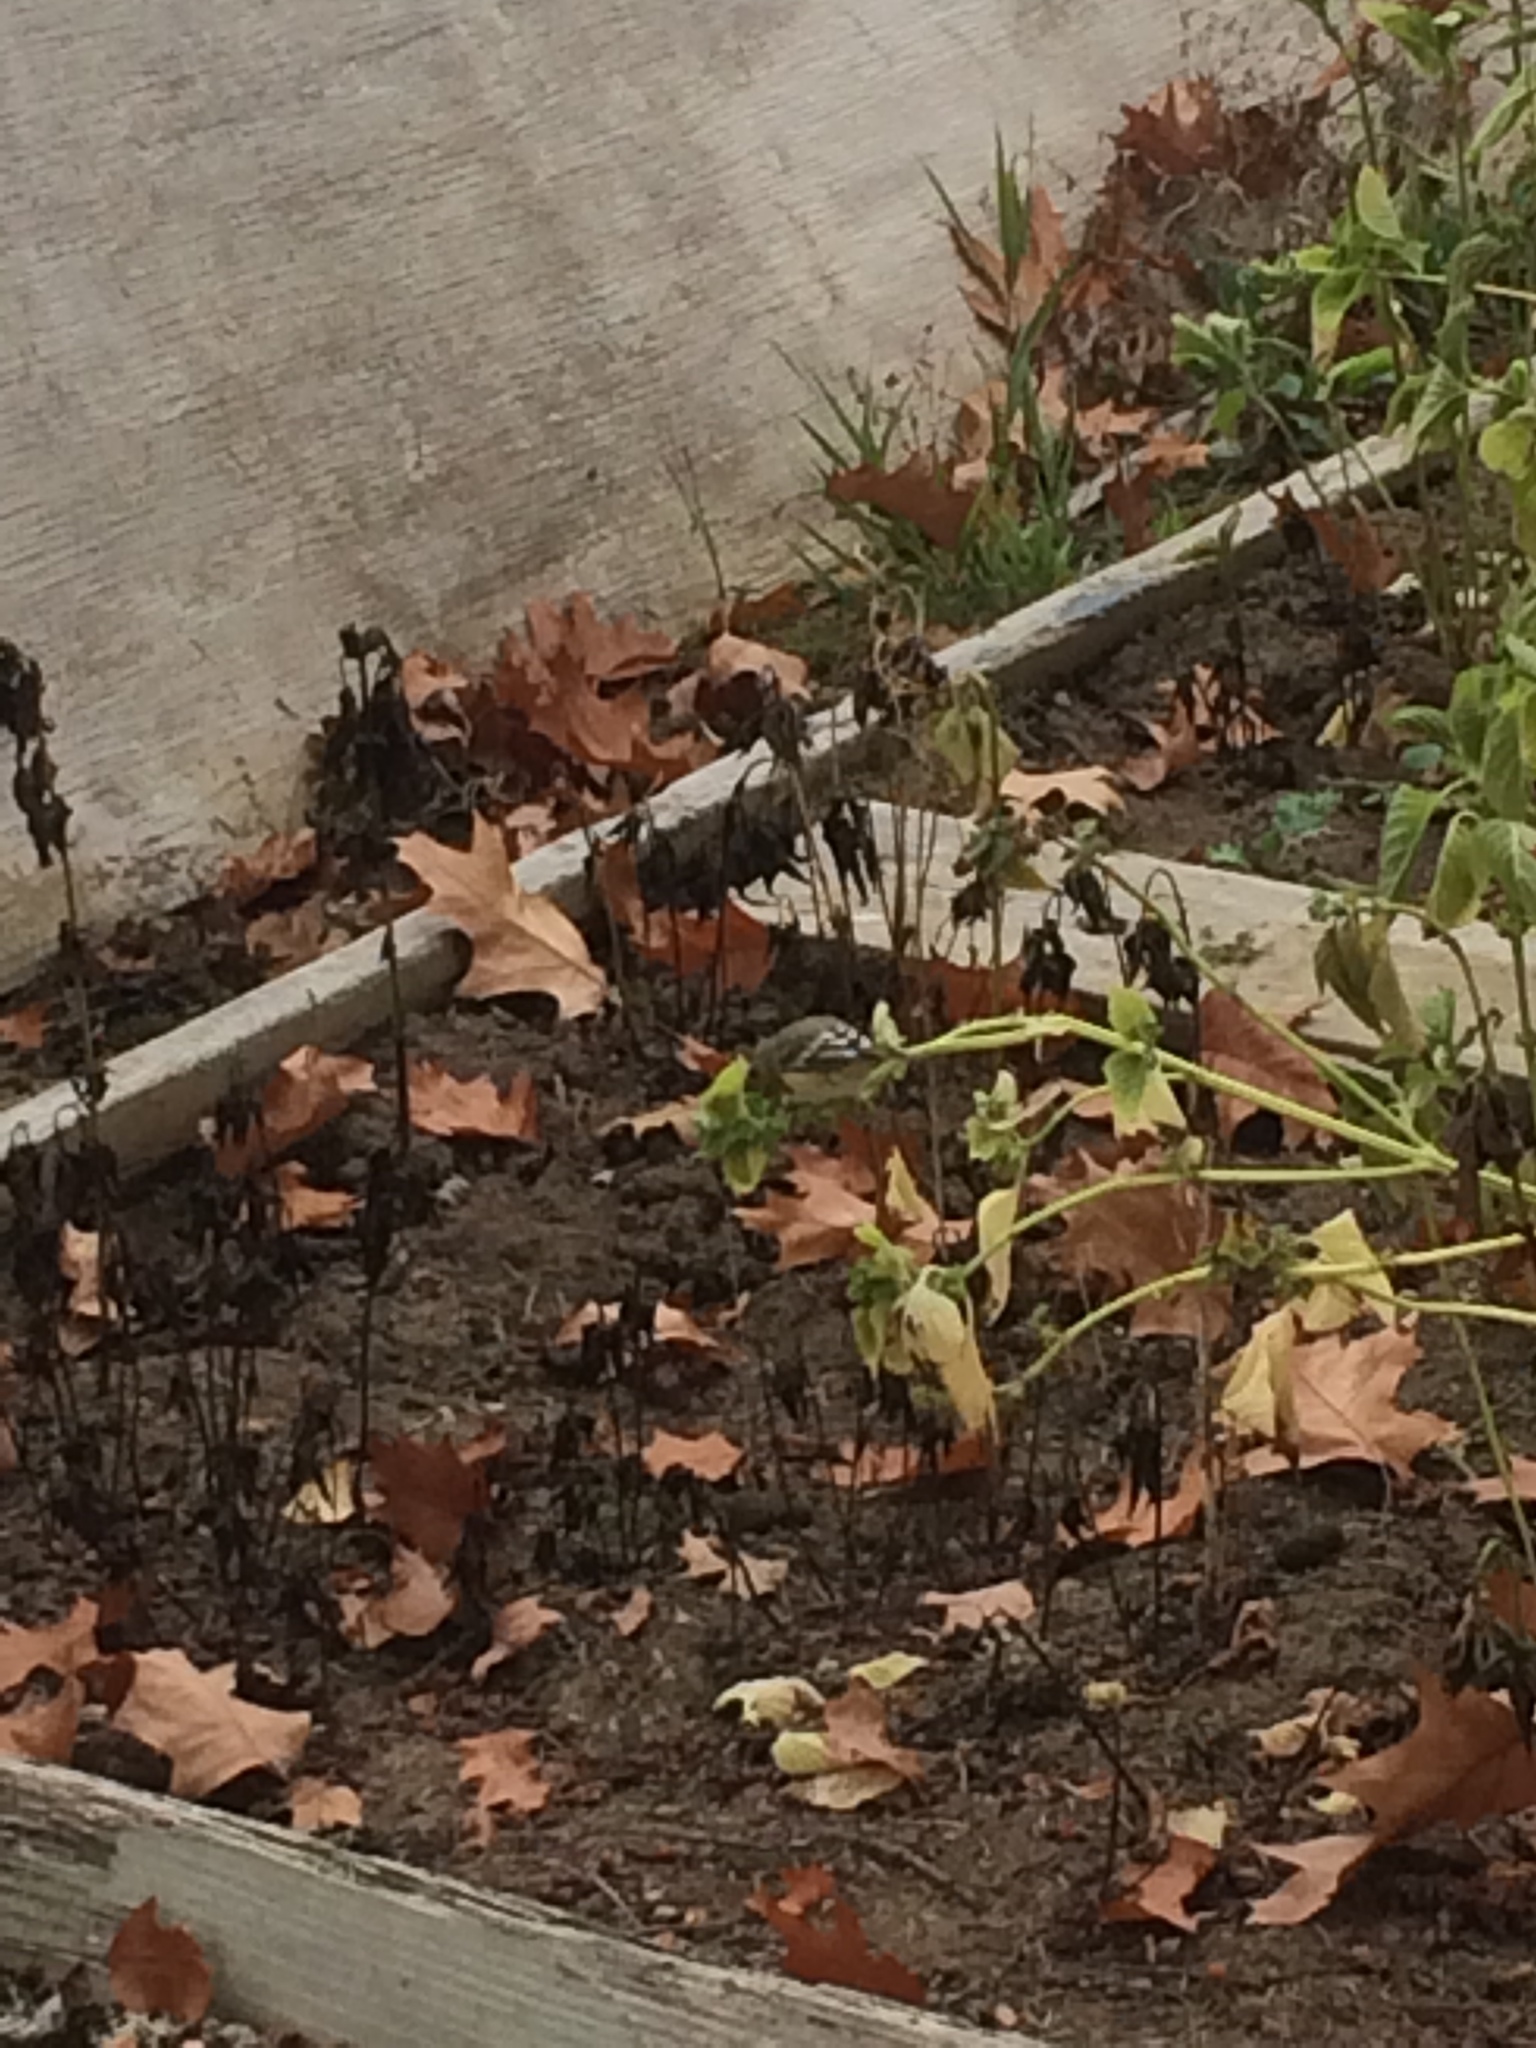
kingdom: Animalia
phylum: Chordata
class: Aves
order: Passeriformes
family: Fringillidae
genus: Spinus
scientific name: Spinus psaltria
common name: Lesser goldfinch
